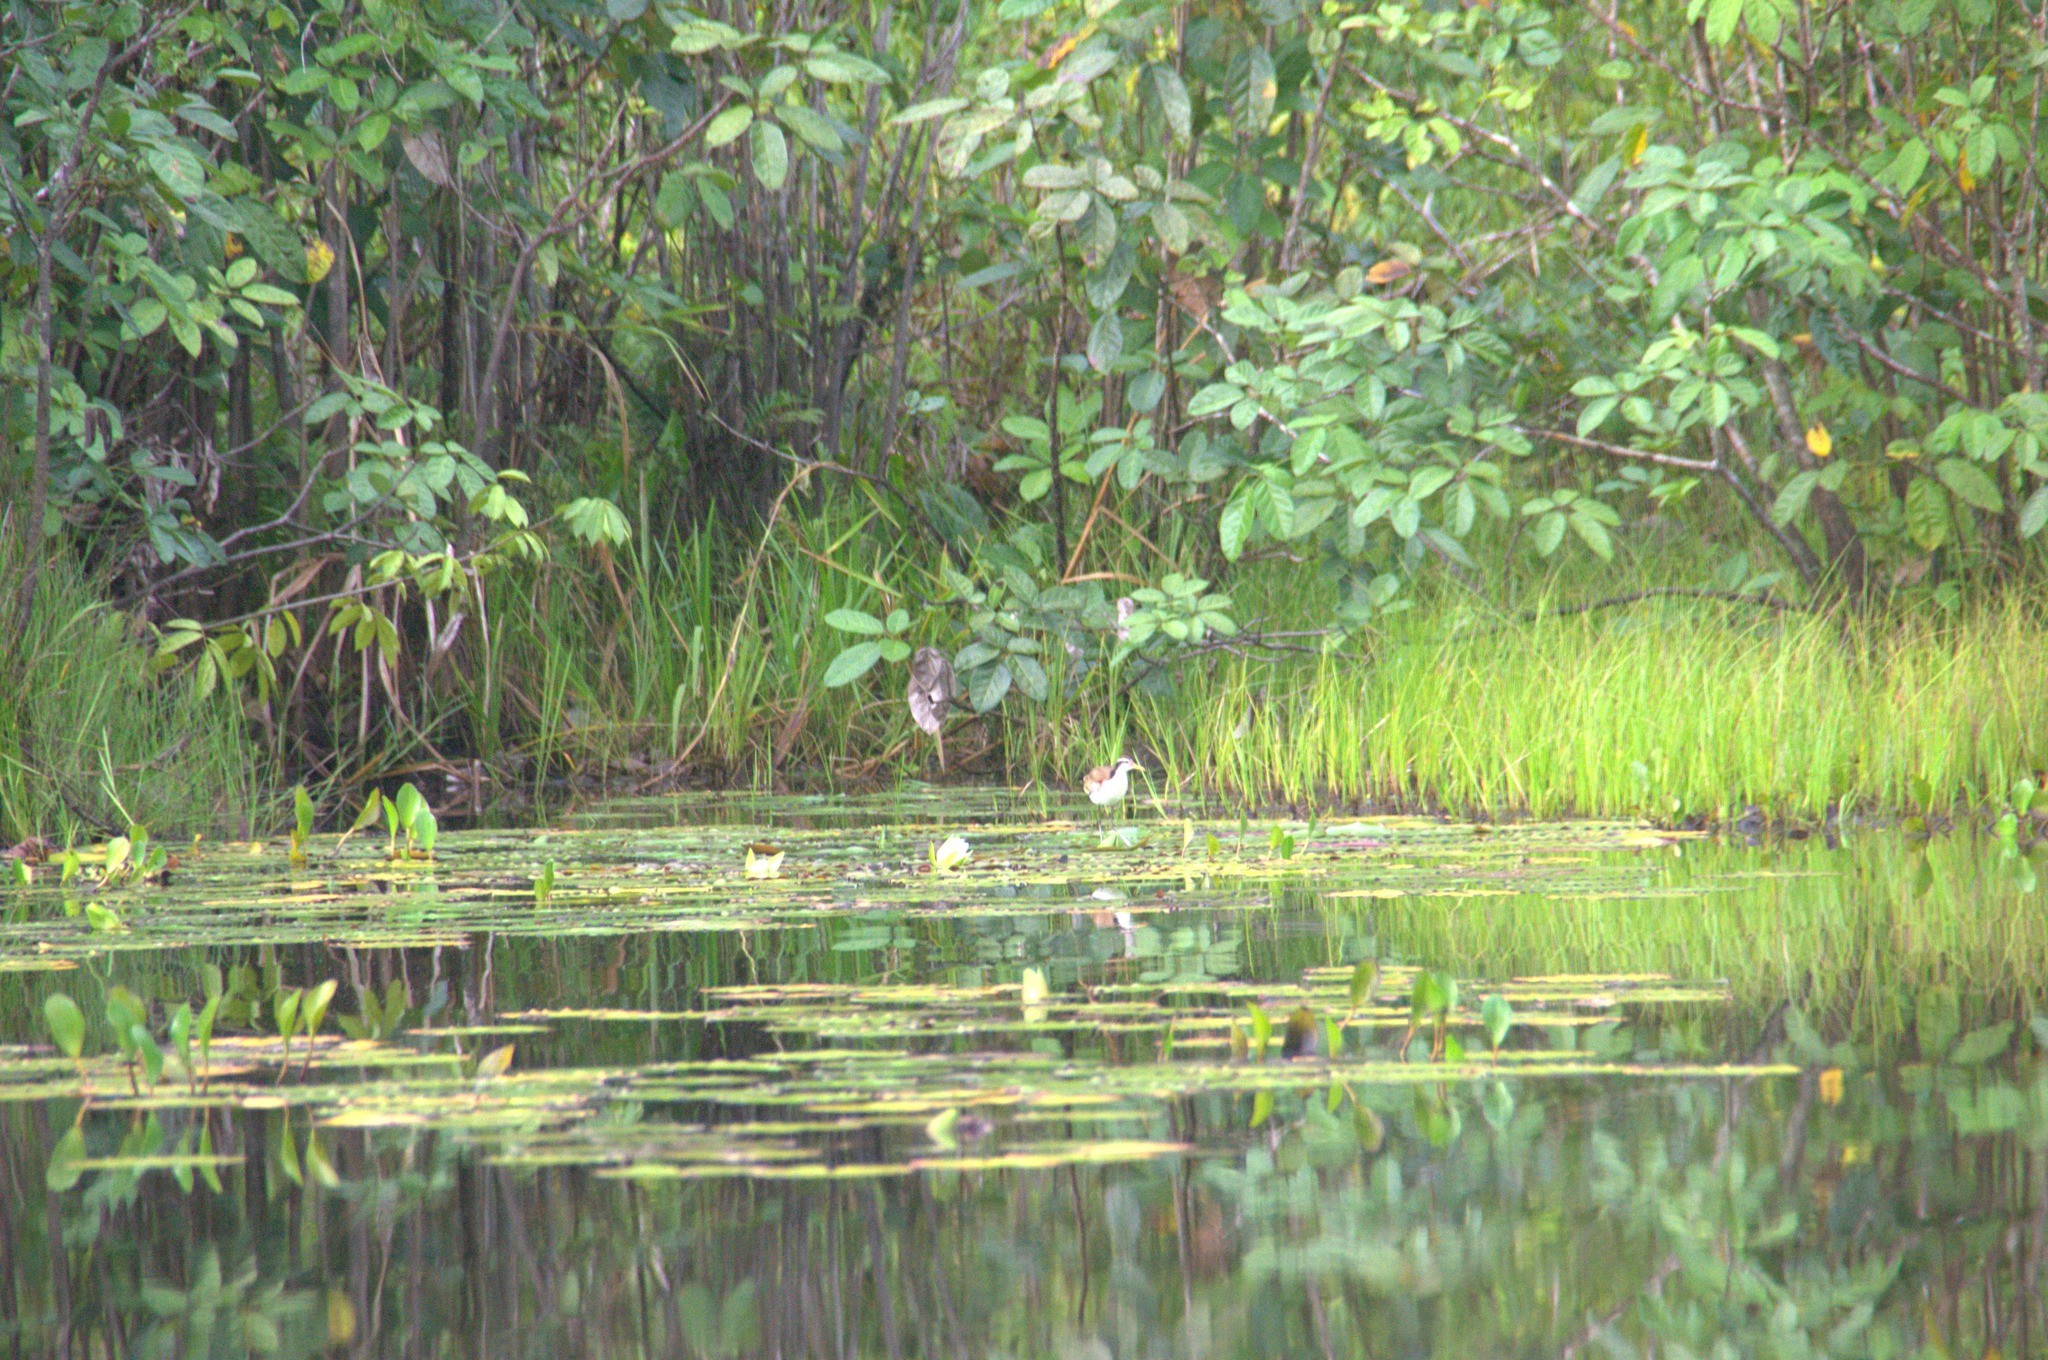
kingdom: Animalia
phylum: Chordata
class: Aves
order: Charadriiformes
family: Jacanidae
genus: Jacana
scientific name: Jacana jacana
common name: Wattled jacana
